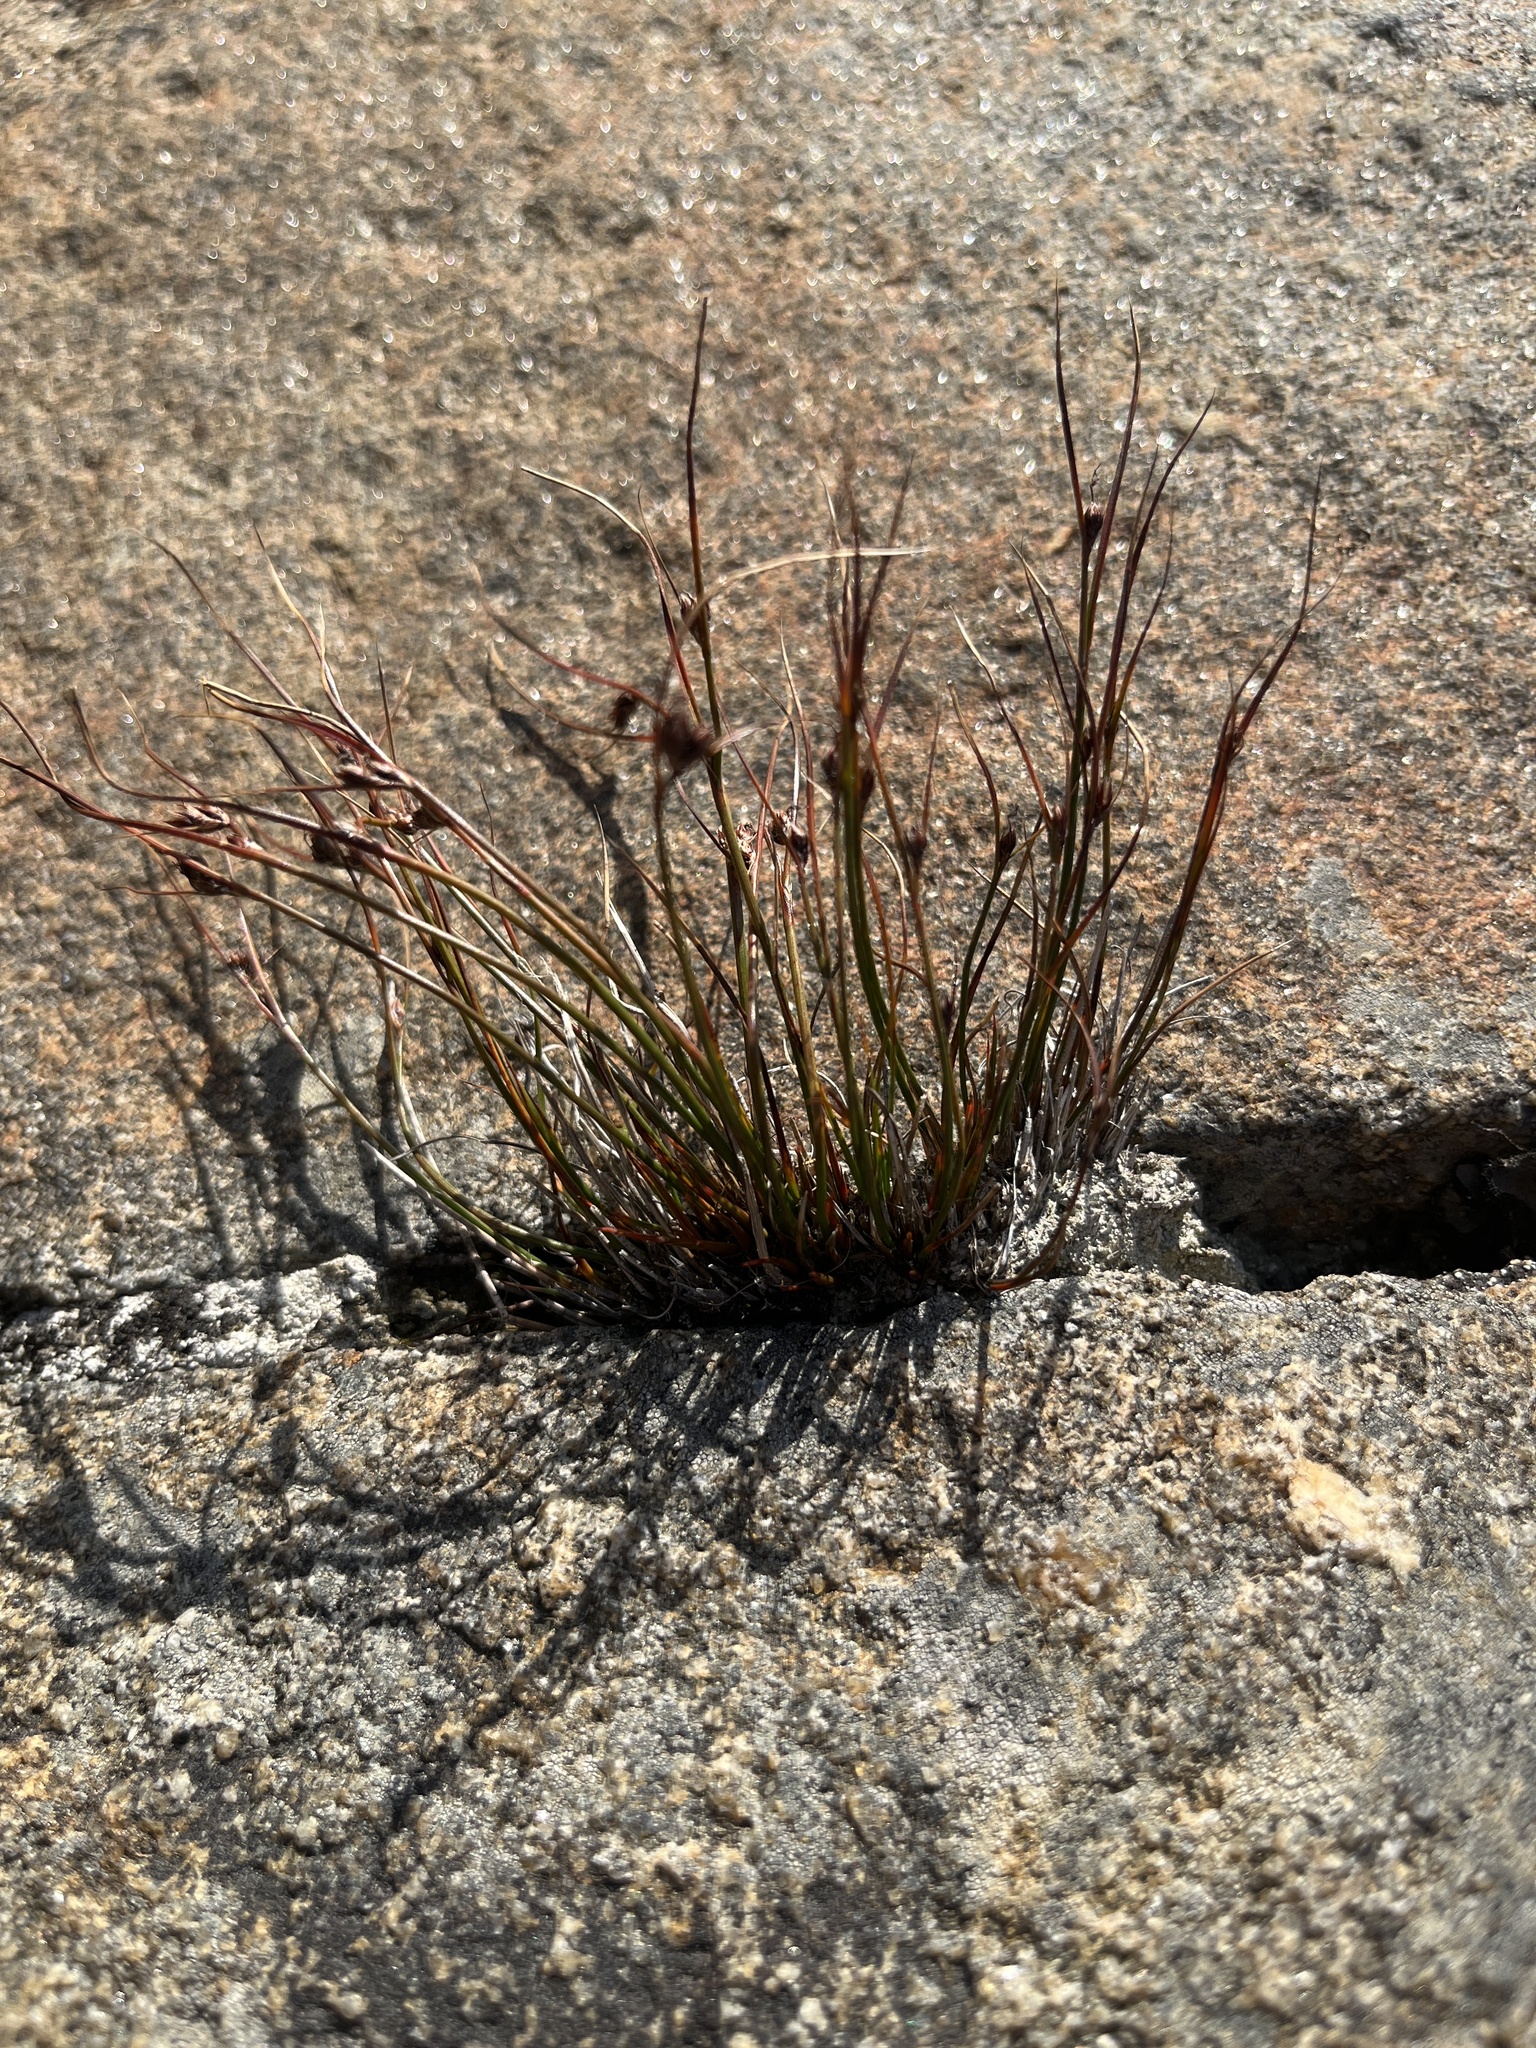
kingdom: Plantae
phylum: Tracheophyta
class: Liliopsida
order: Poales
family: Juncaceae
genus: Oreojuncus
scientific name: Oreojuncus trifidus
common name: Highland rush
